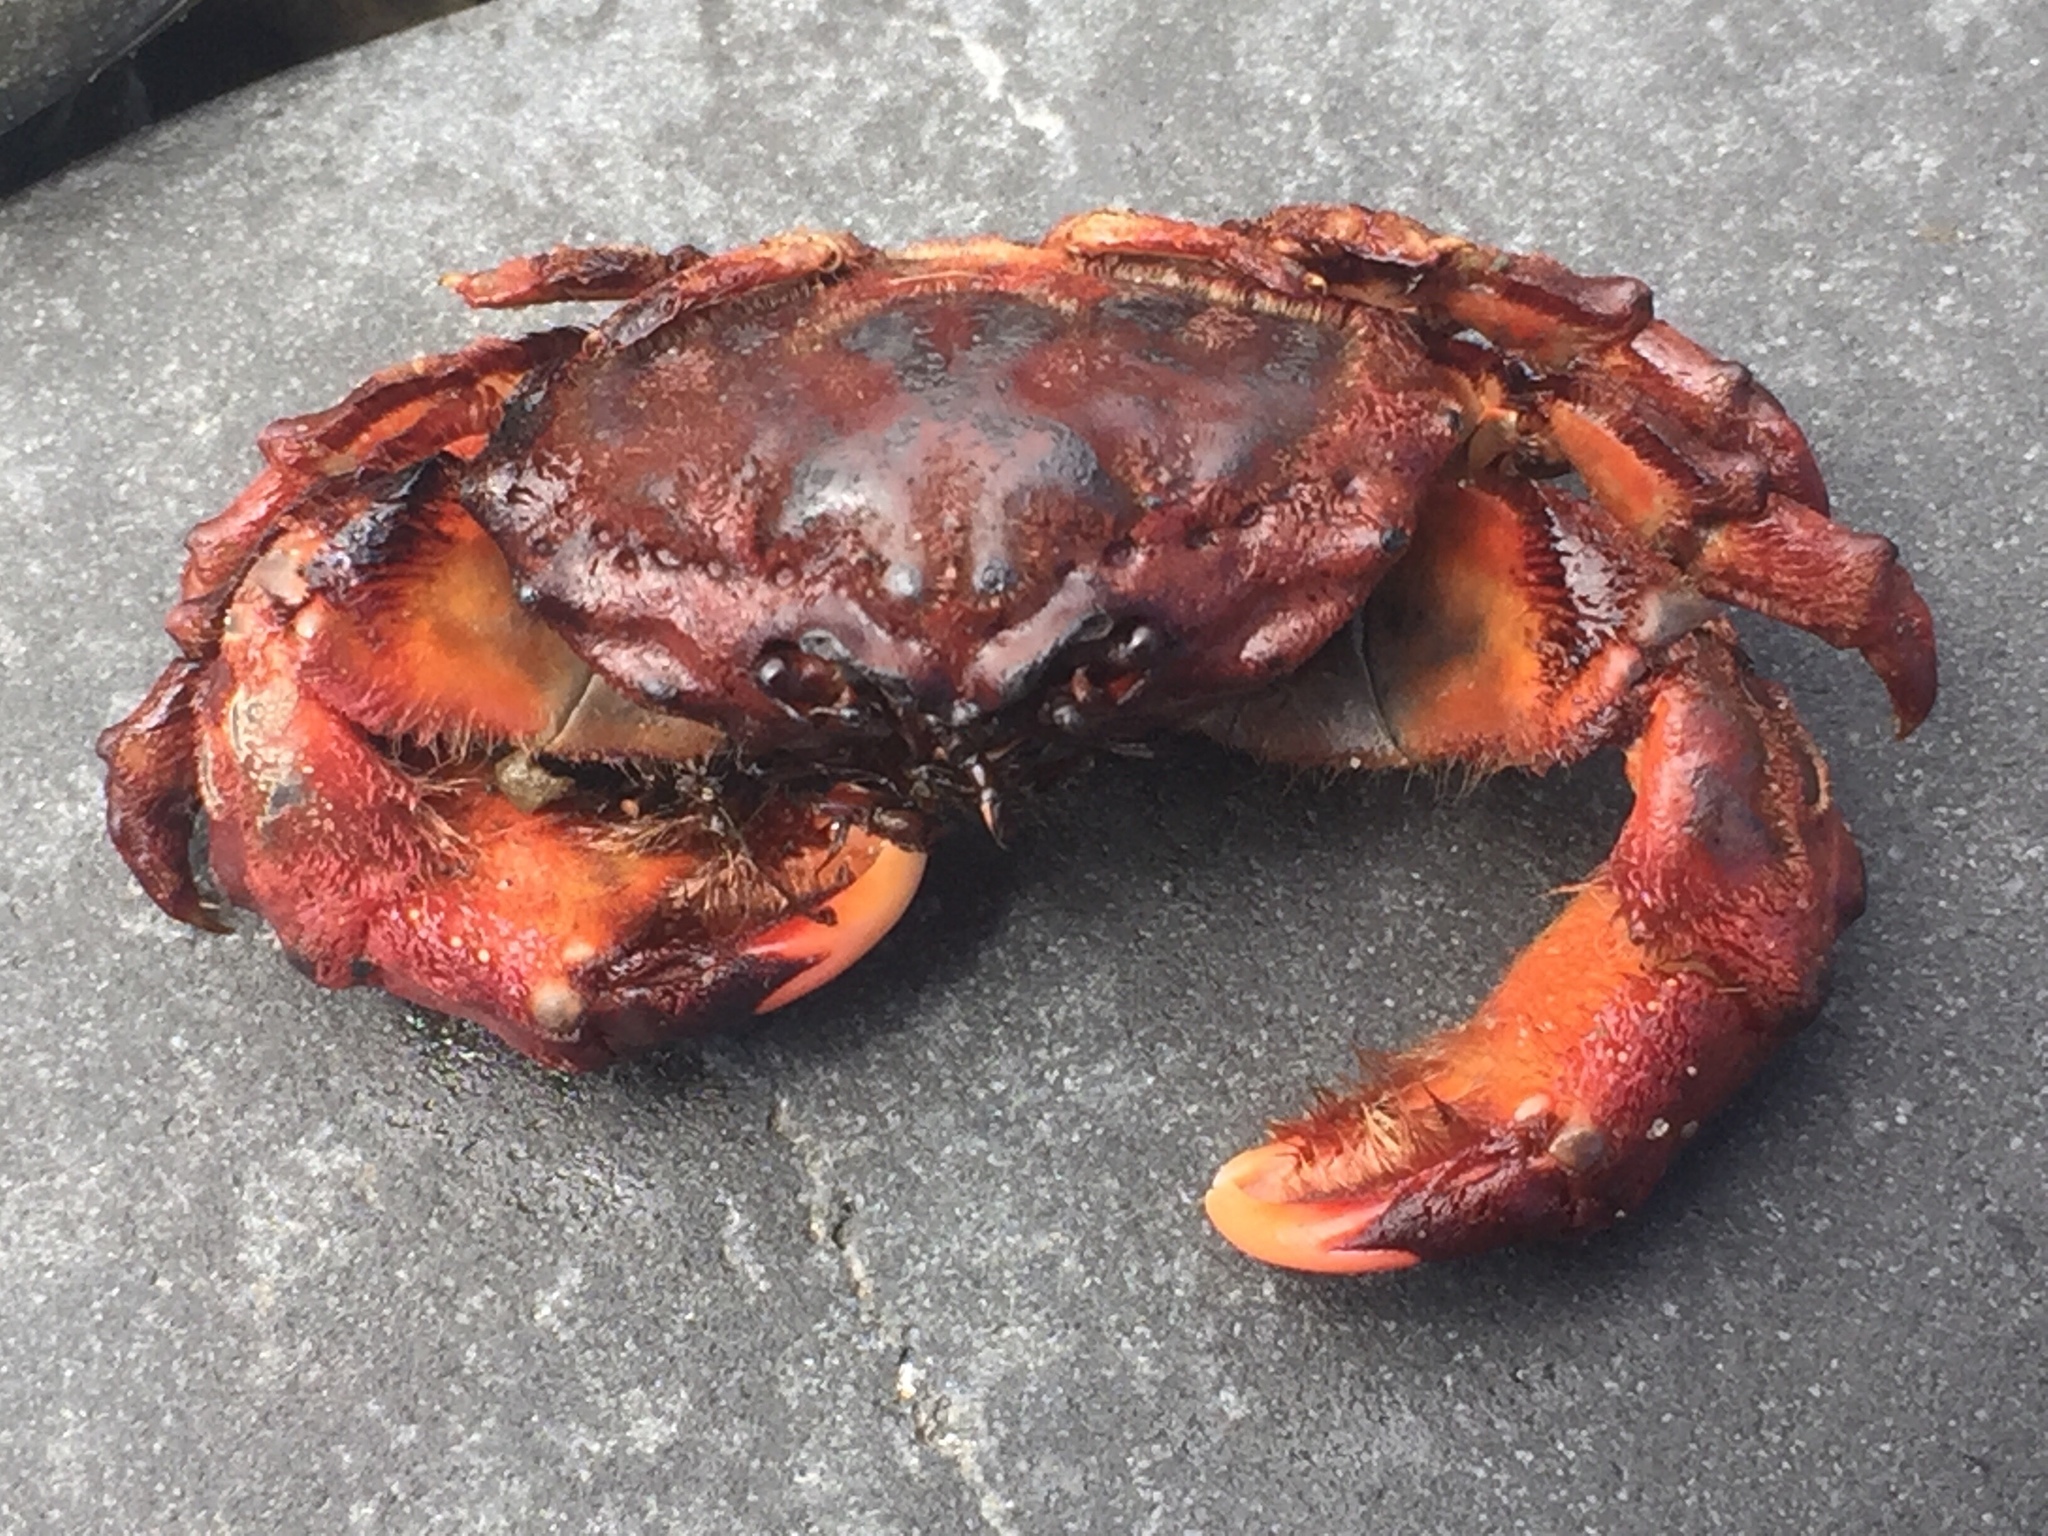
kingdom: Animalia
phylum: Arthropoda
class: Malacostraca
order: Decapoda
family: Dromiidae
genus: Metadromia
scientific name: Metadromia wilsoni
